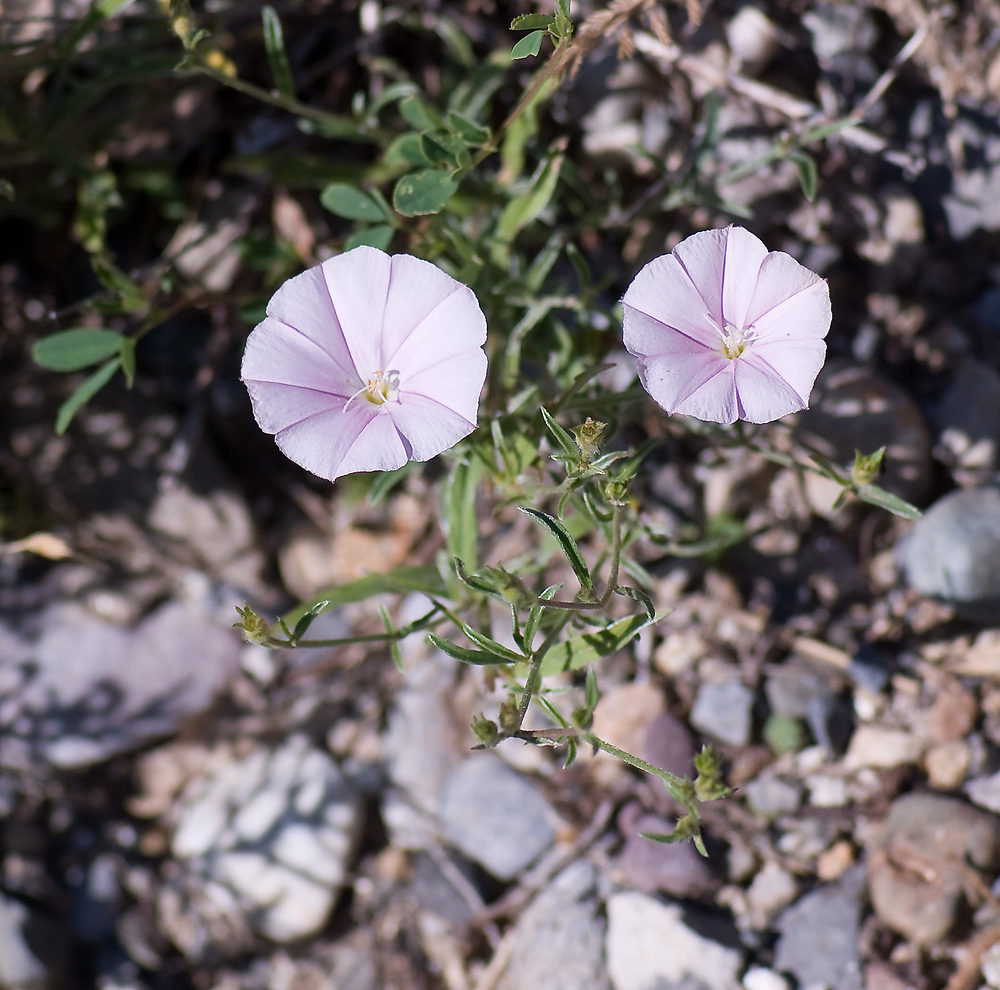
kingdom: Plantae
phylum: Tracheophyta
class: Magnoliopsida
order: Solanales
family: Convolvulaceae
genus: Convolvulus
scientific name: Convolvulus cantabrica
